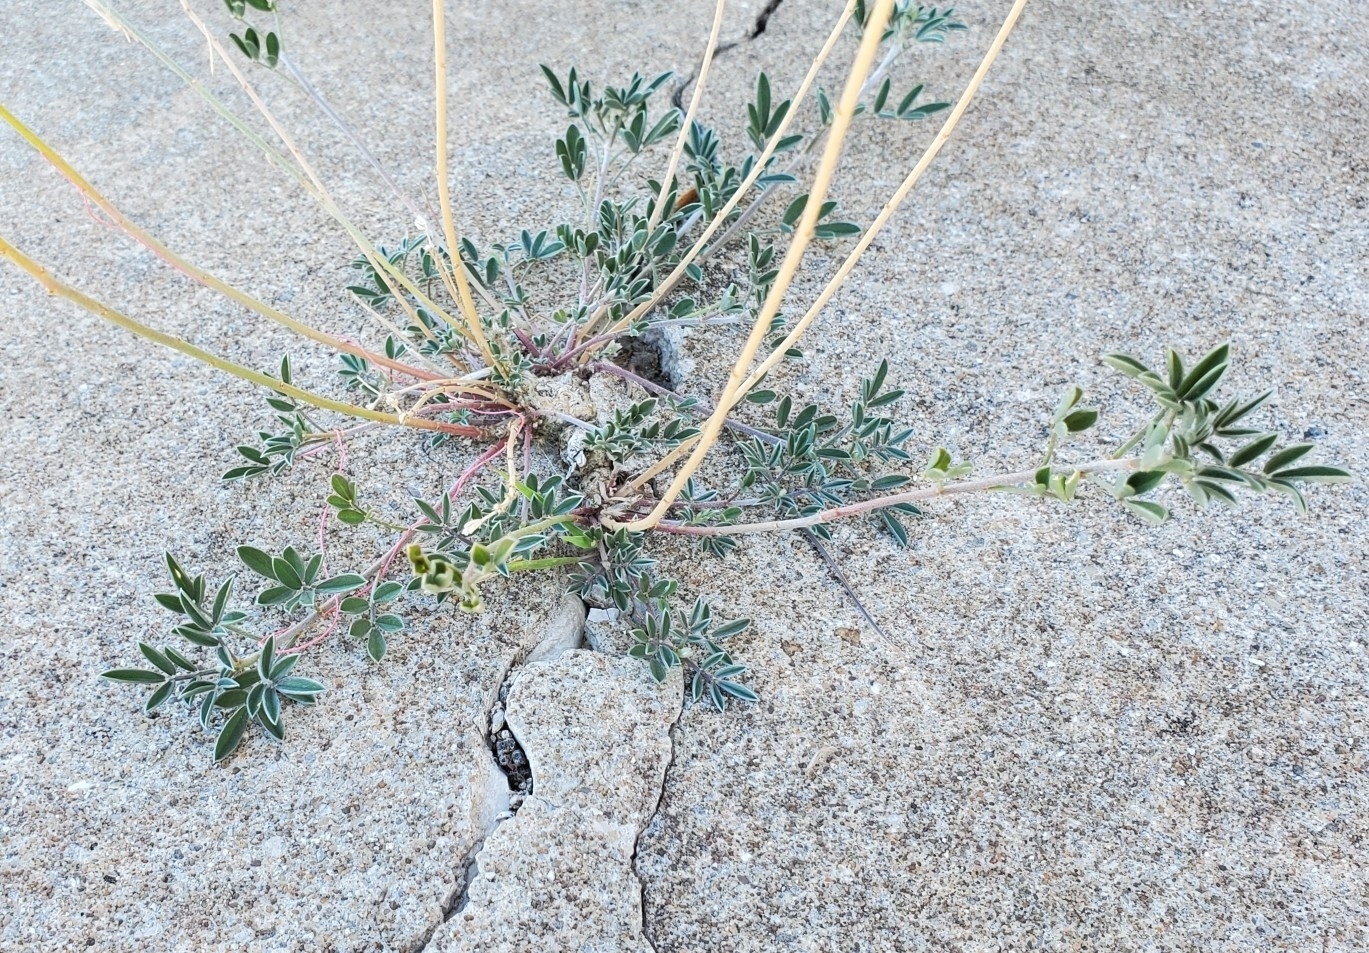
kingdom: Plantae
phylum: Tracheophyta
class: Magnoliopsida
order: Fabales
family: Fabaceae
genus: Dalea
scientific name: Dalea aurea
